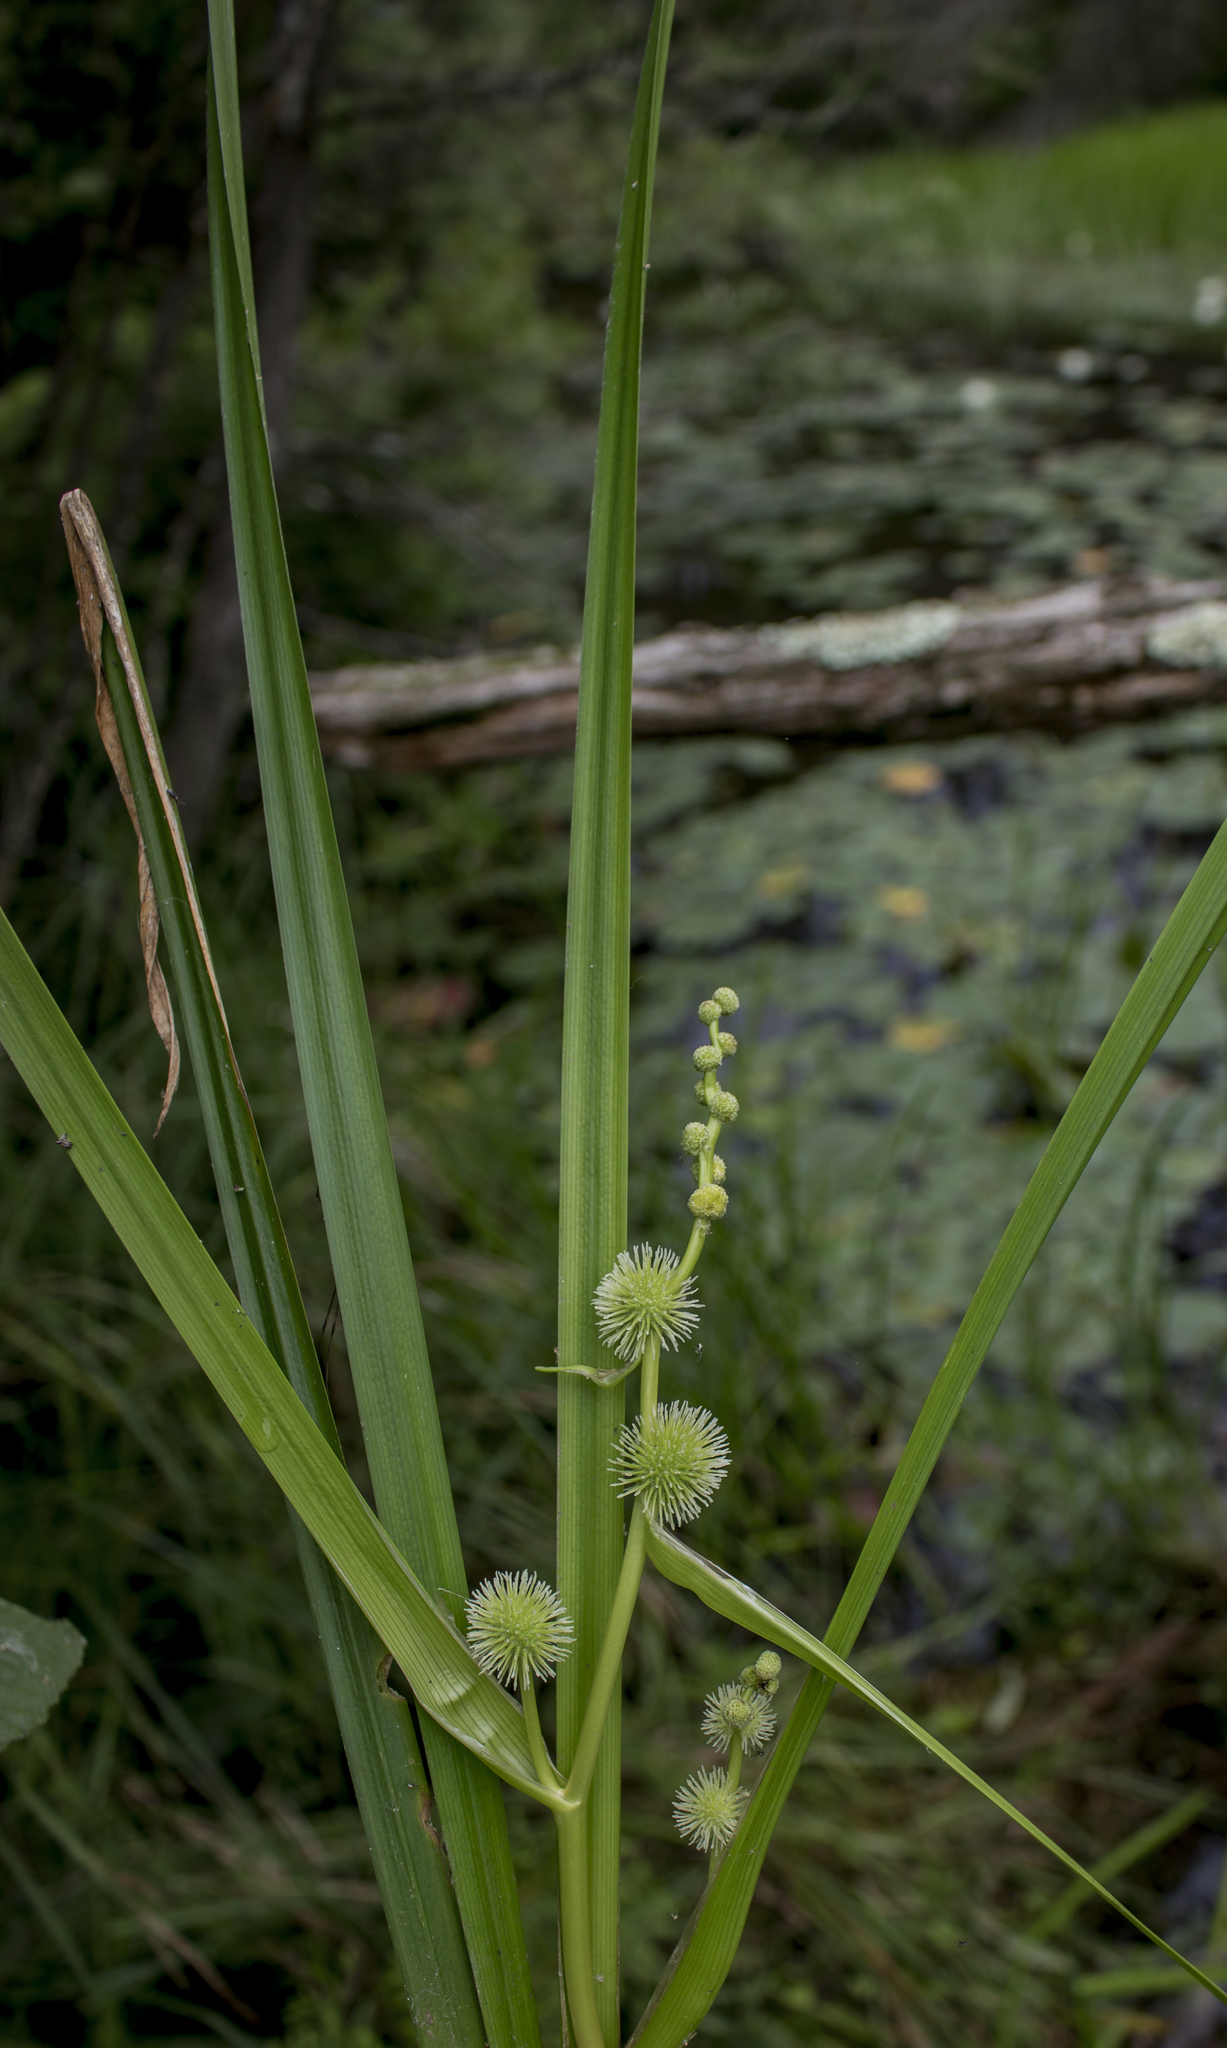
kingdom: Plantae
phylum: Tracheophyta
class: Liliopsida
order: Poales
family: Typhaceae
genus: Sparganium
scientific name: Sparganium americanum
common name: American burreed
